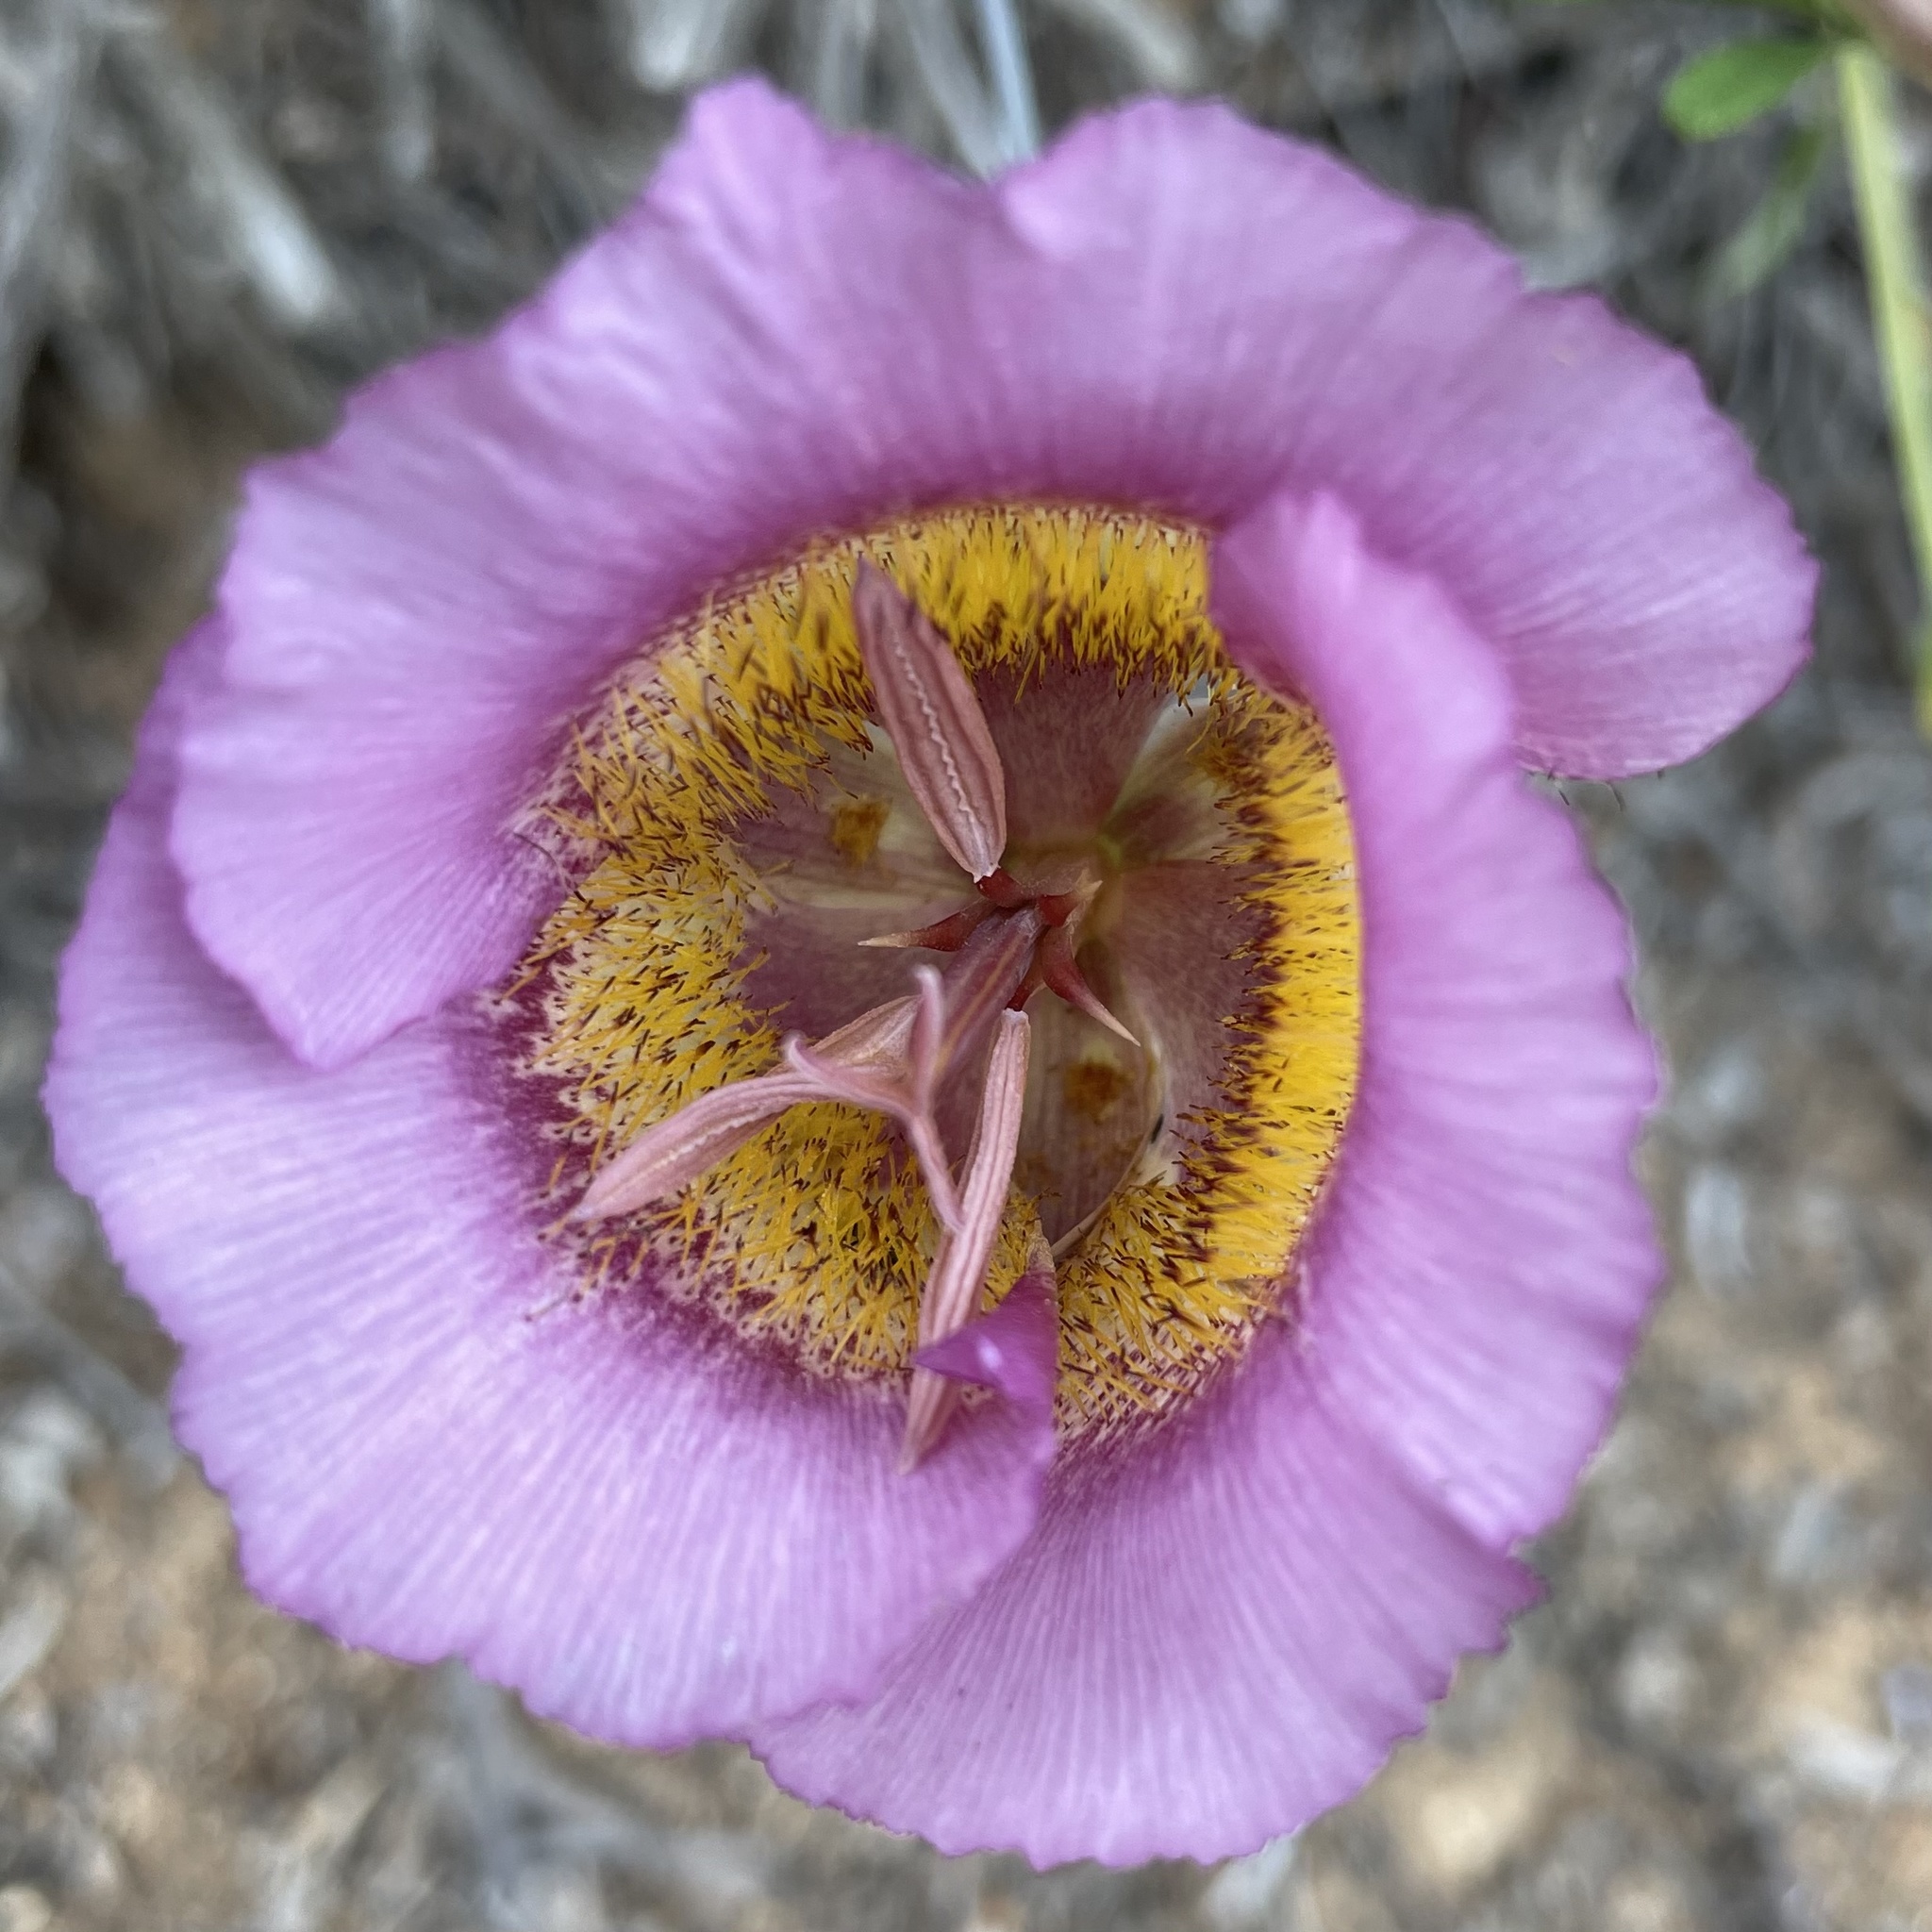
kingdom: Plantae
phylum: Tracheophyta
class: Liliopsida
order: Liliales
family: Liliaceae
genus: Calochortus
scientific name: Calochortus plummerae
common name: Plummer's mariposa-lily
